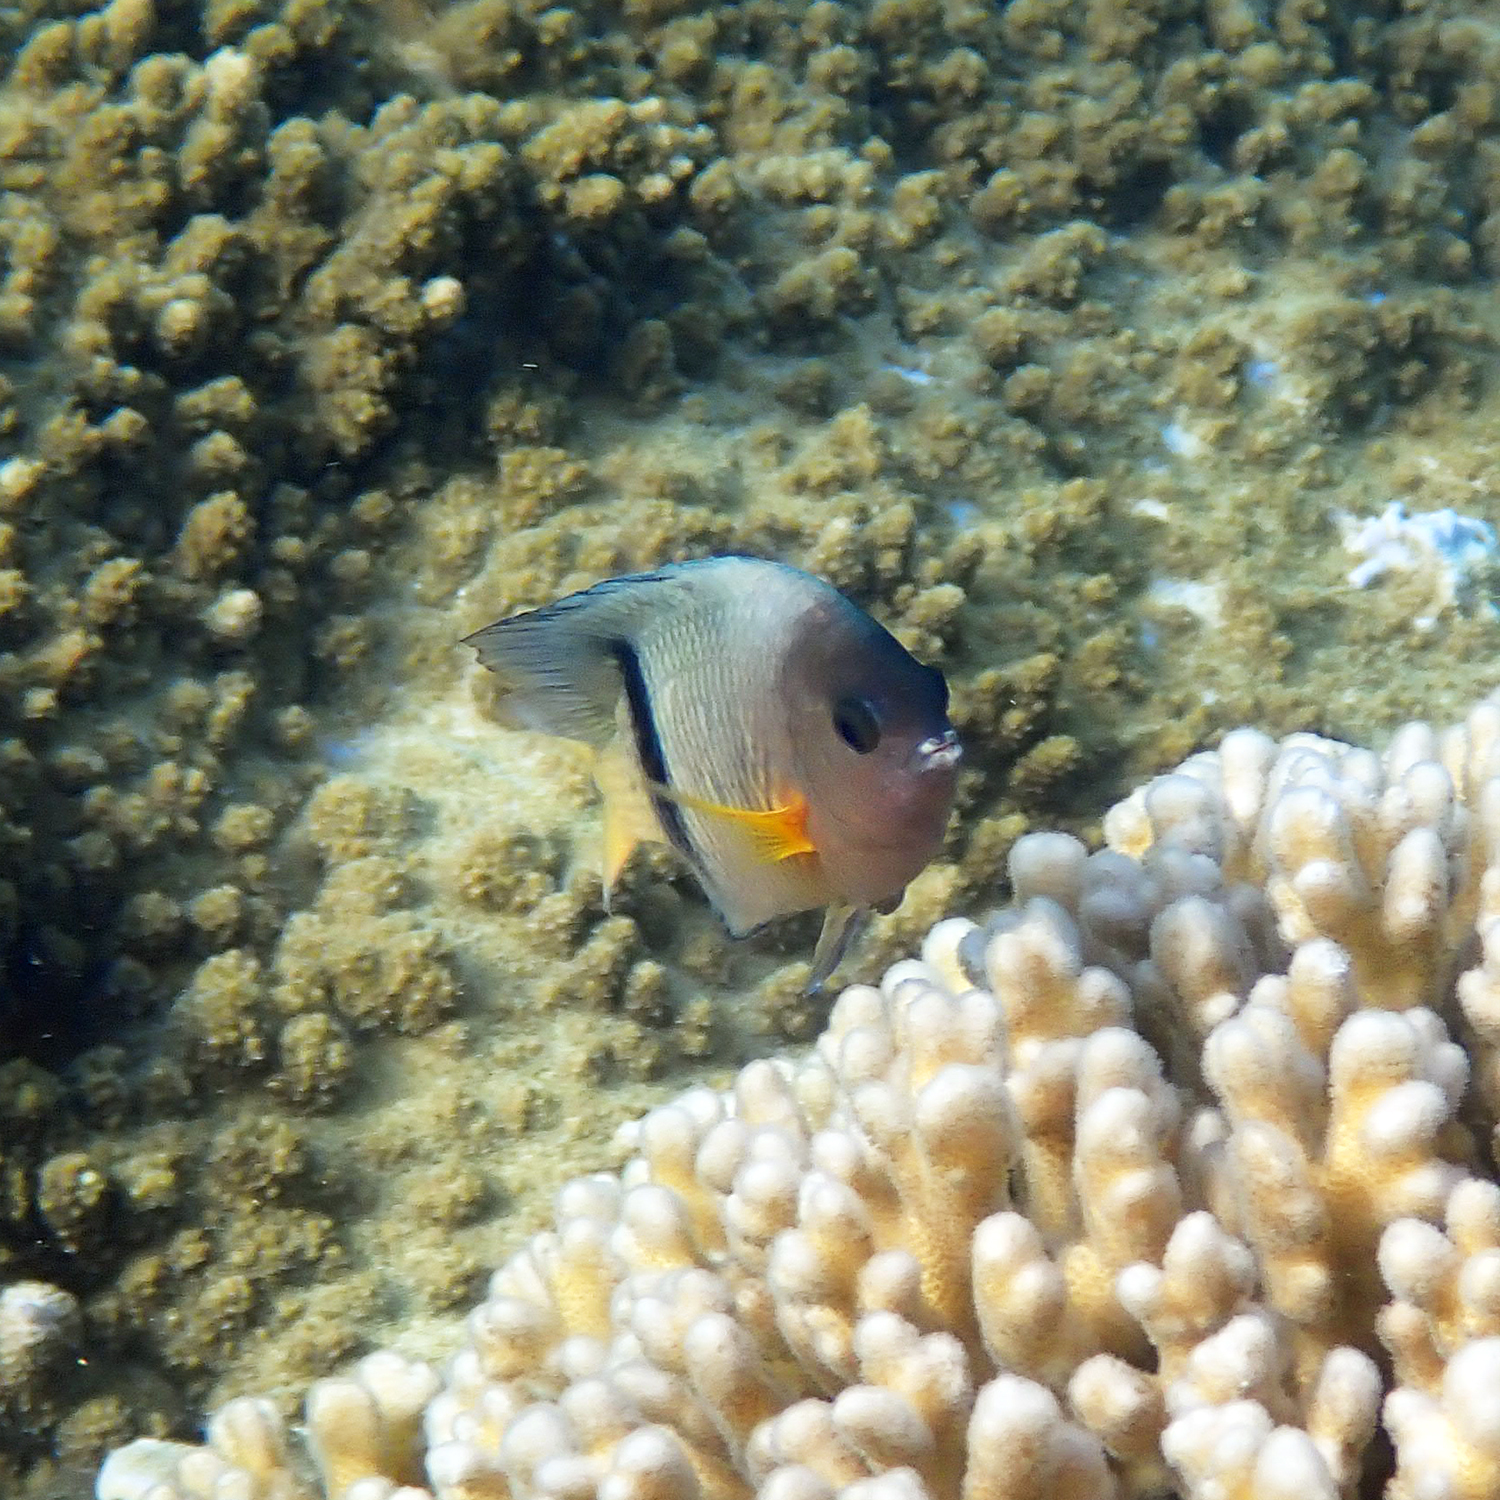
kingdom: Animalia
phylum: Chordata
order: Perciformes
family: Pomacentridae
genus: Plectroglyphidodon
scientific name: Plectroglyphidodon dickii
